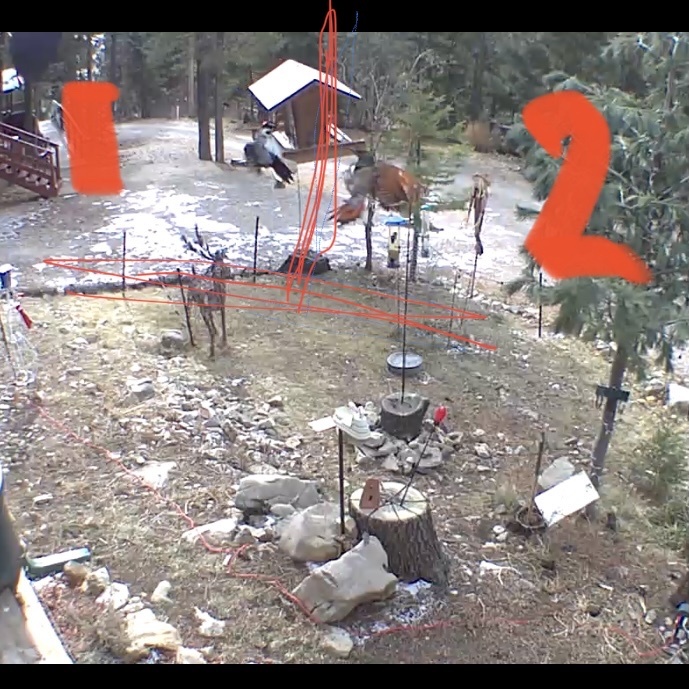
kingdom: Animalia
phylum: Chordata
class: Aves
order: Piciformes
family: Picidae
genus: Colaptes
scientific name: Colaptes auratus
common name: Northern flicker
